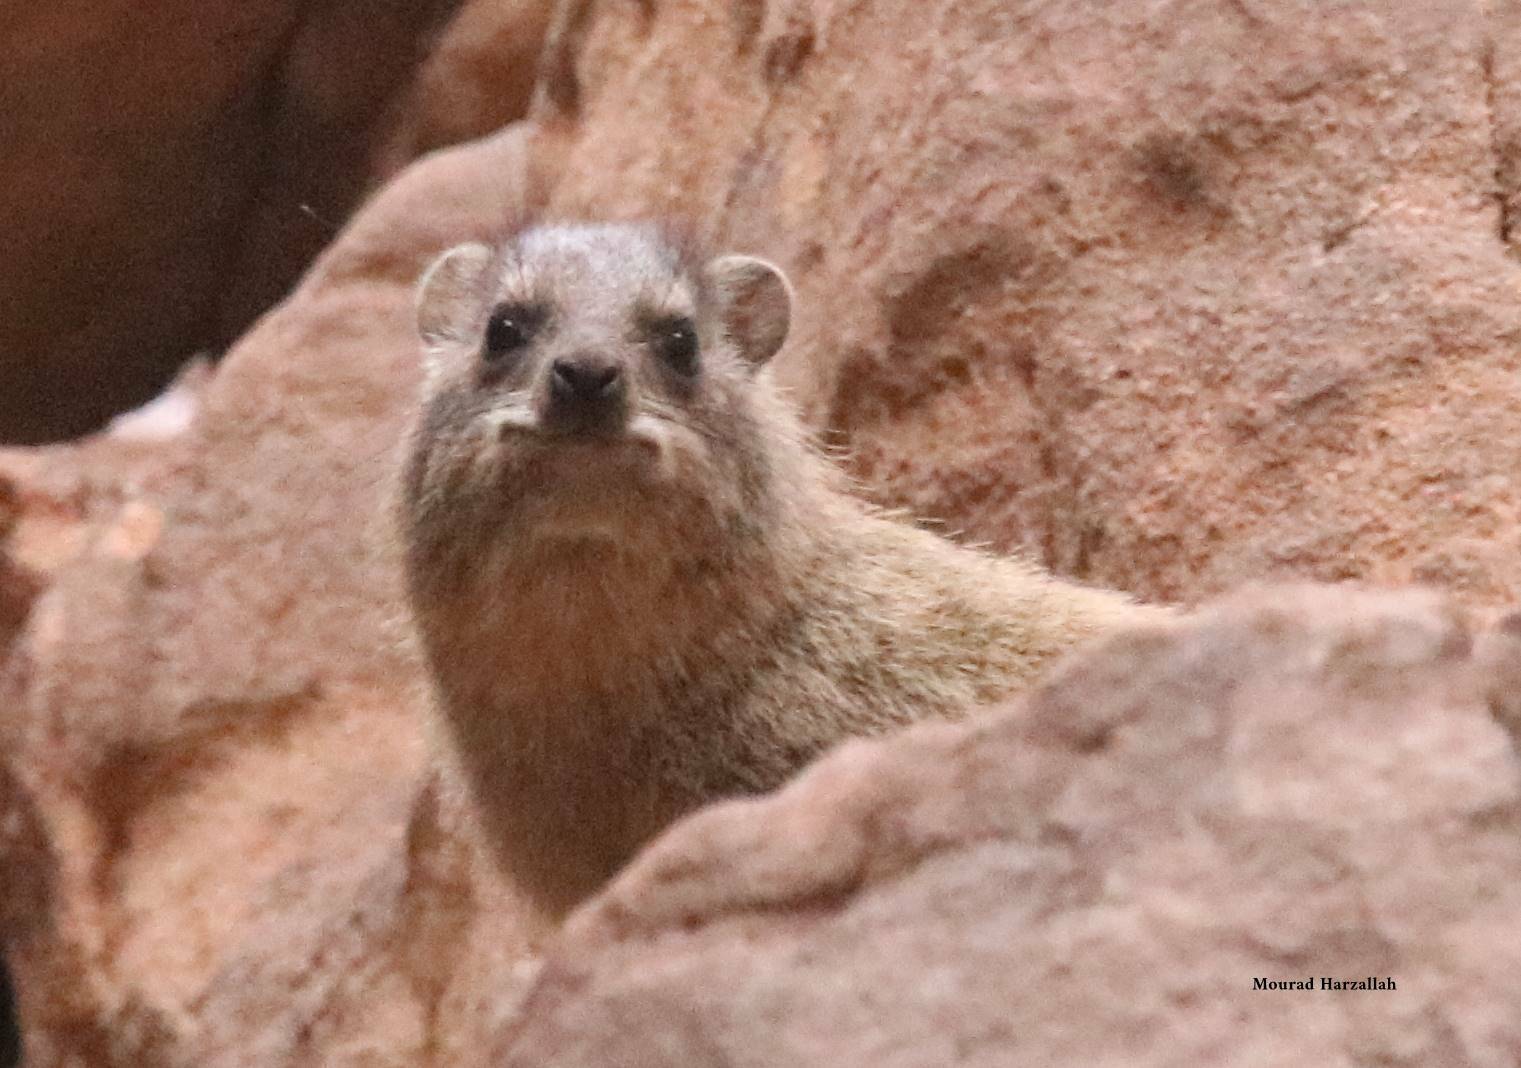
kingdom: Animalia
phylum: Chordata
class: Mammalia
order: Hyracoidea
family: Procaviidae
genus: Procavia
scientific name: Procavia capensis
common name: Rock hyrax
